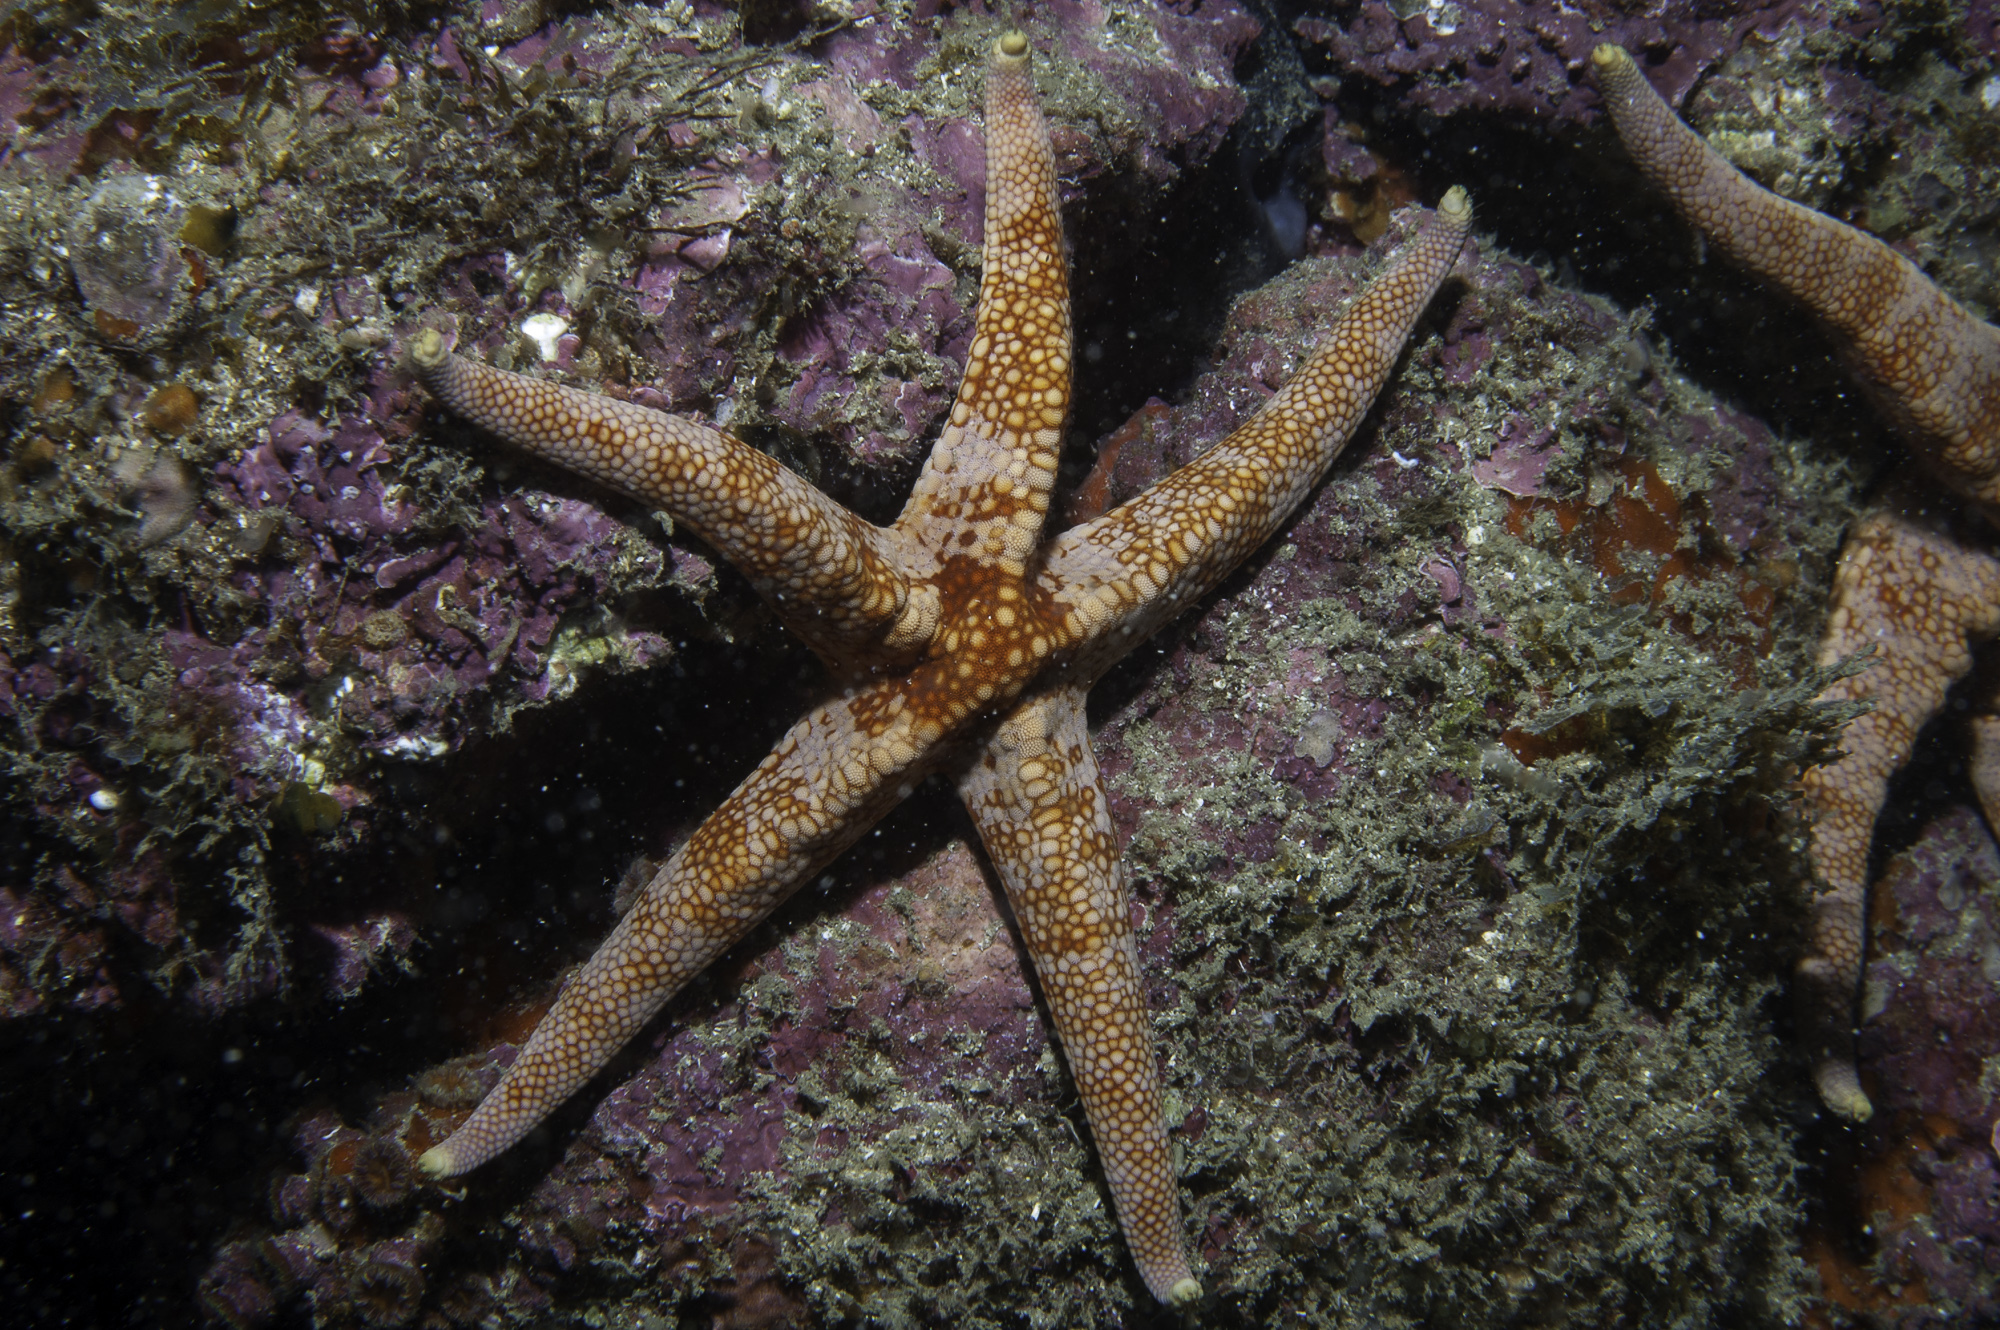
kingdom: Animalia
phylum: Echinodermata
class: Asteroidea
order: Valvatida
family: Ophidiasteridae
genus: Narcissia
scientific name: Narcissia trigonaria
